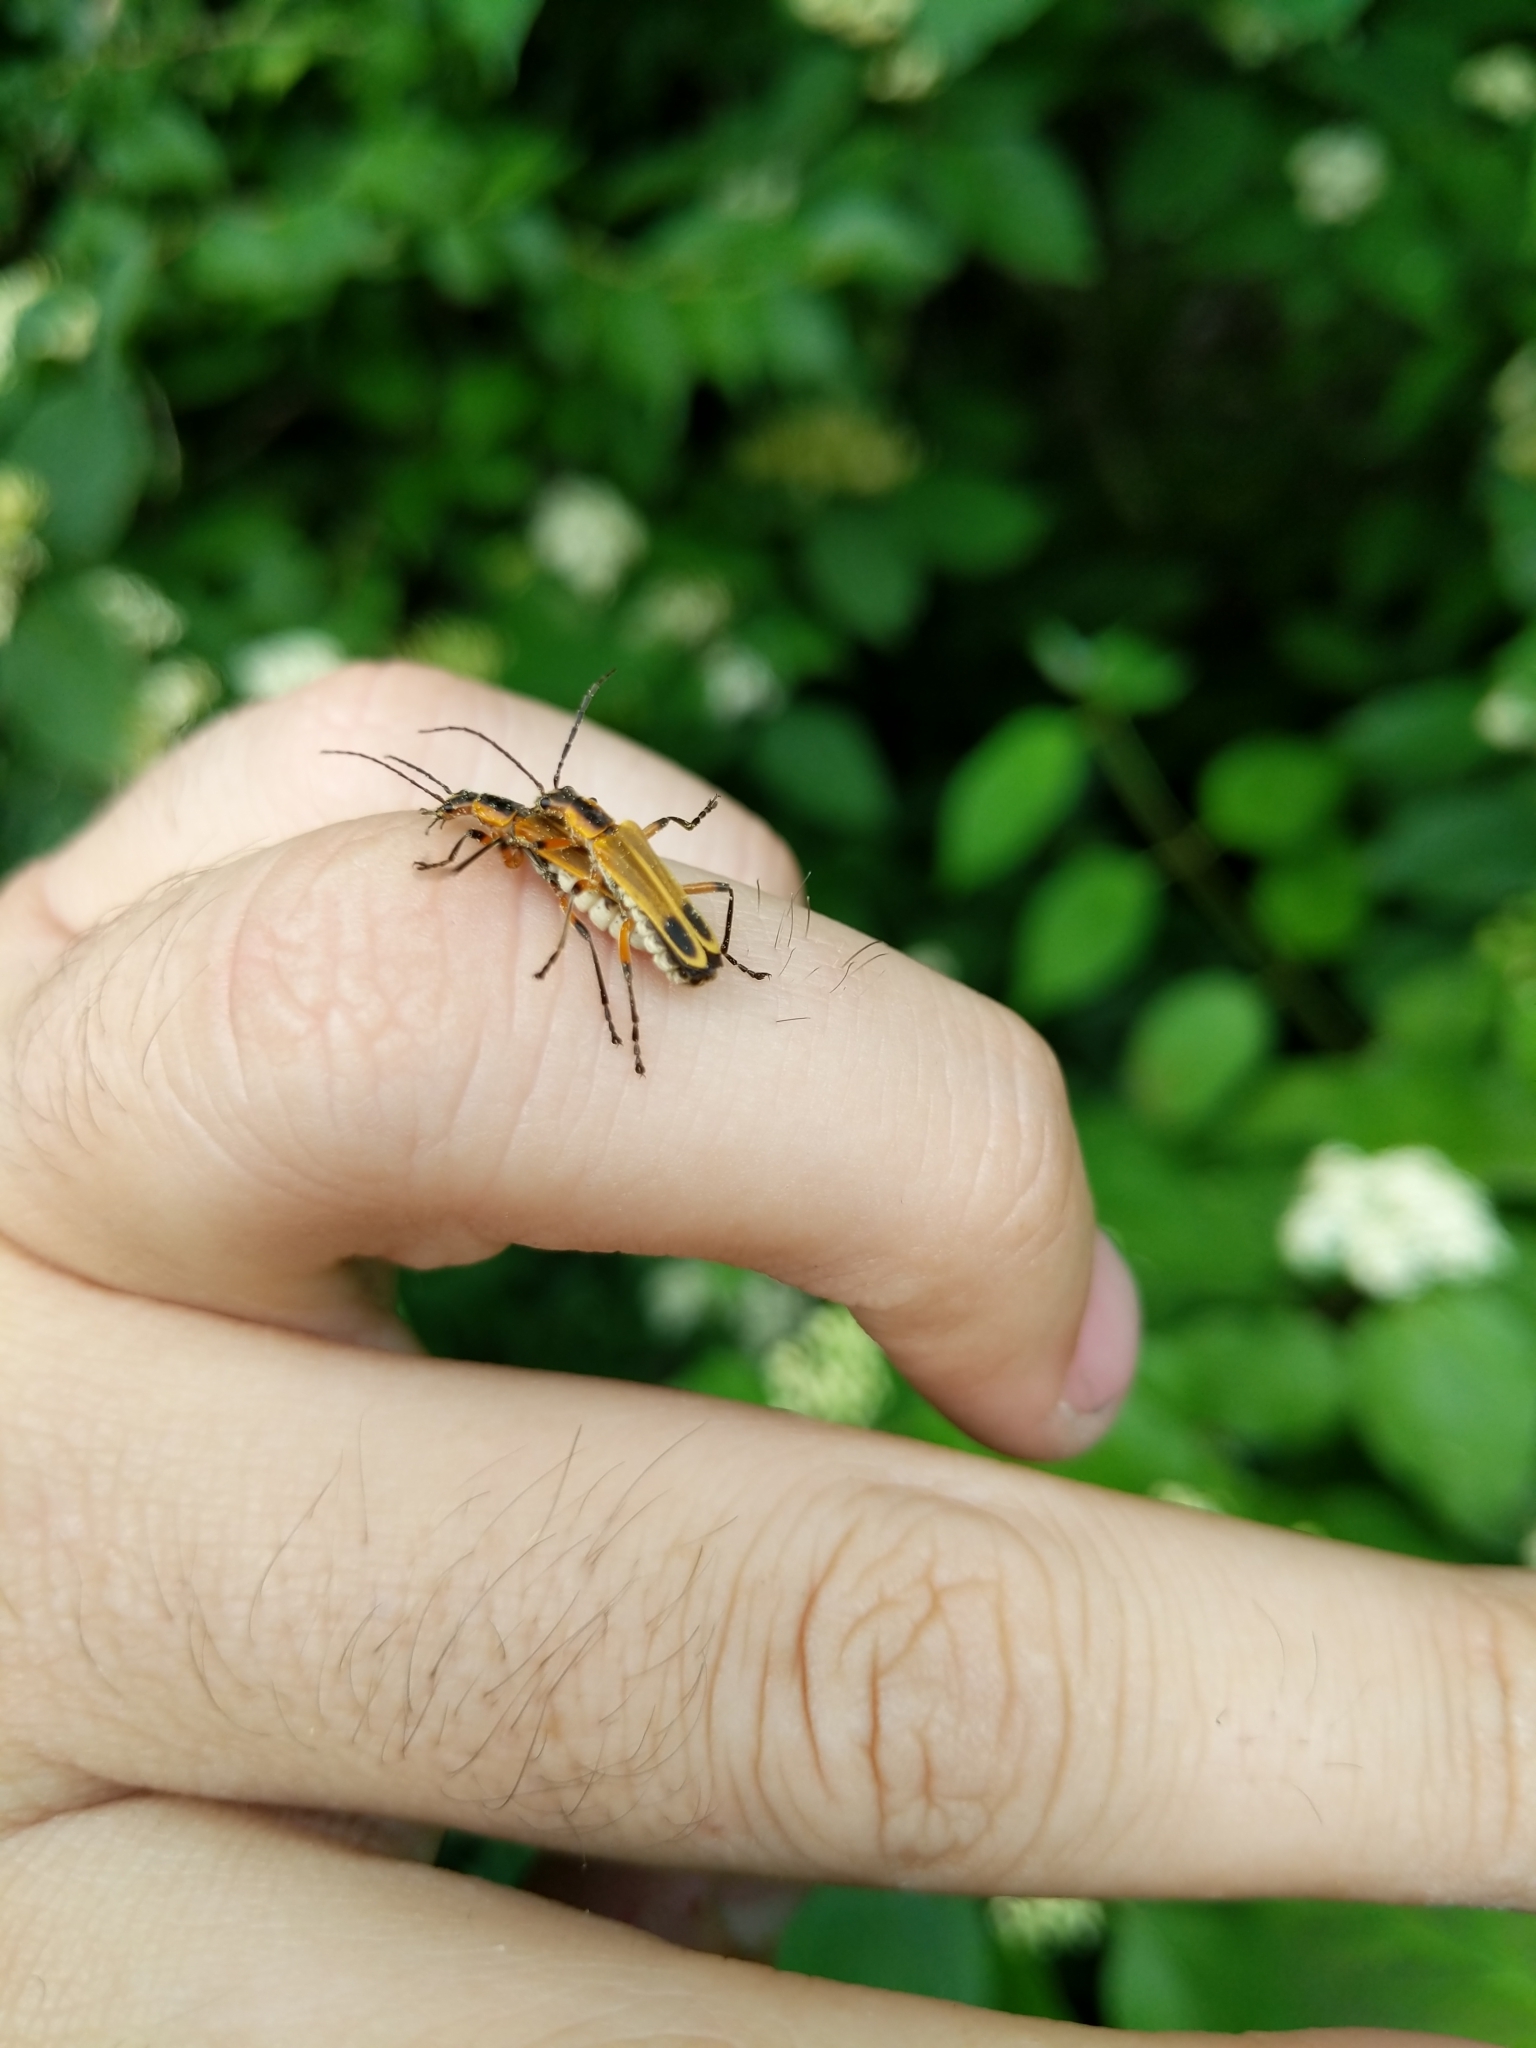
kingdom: Animalia
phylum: Arthropoda
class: Insecta
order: Coleoptera
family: Cantharidae
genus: Chauliognathus
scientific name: Chauliognathus marginatus
